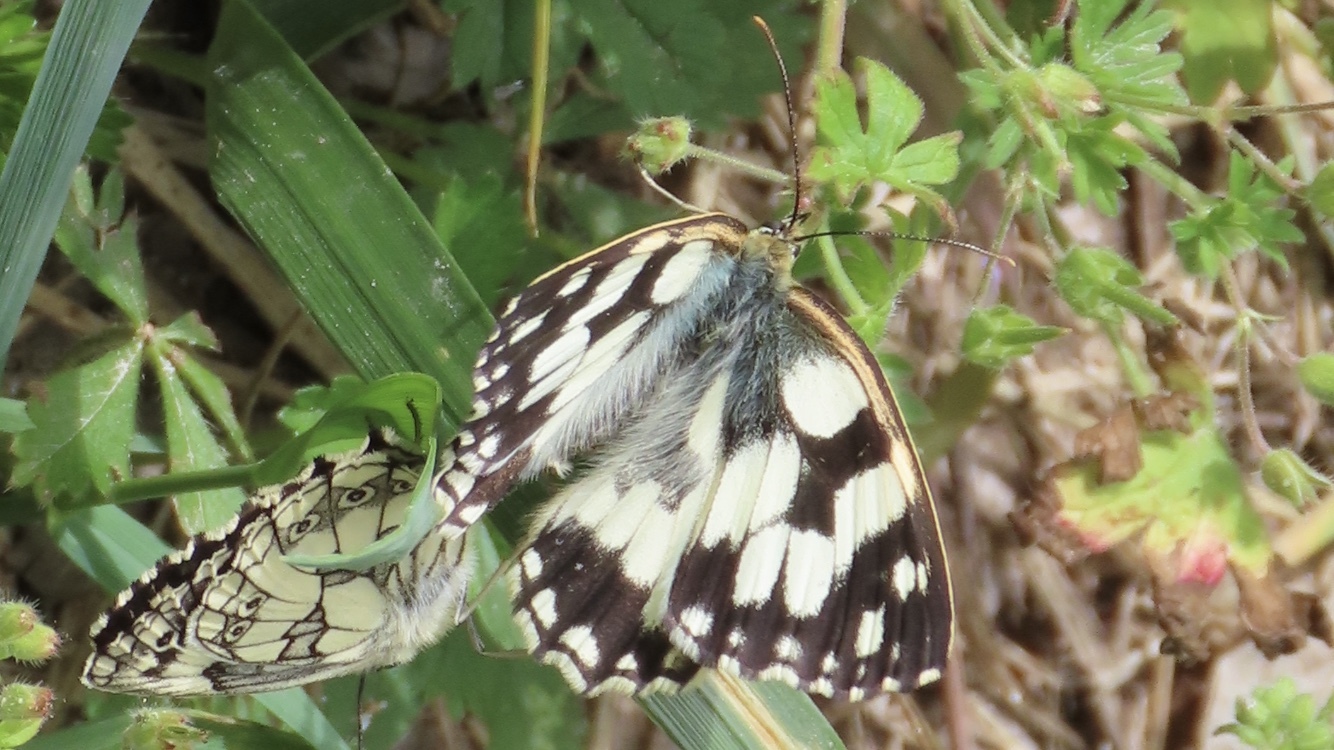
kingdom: Animalia
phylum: Arthropoda
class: Insecta
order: Lepidoptera
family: Nymphalidae
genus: Melanargia
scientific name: Melanargia galathea
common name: Marbled white
